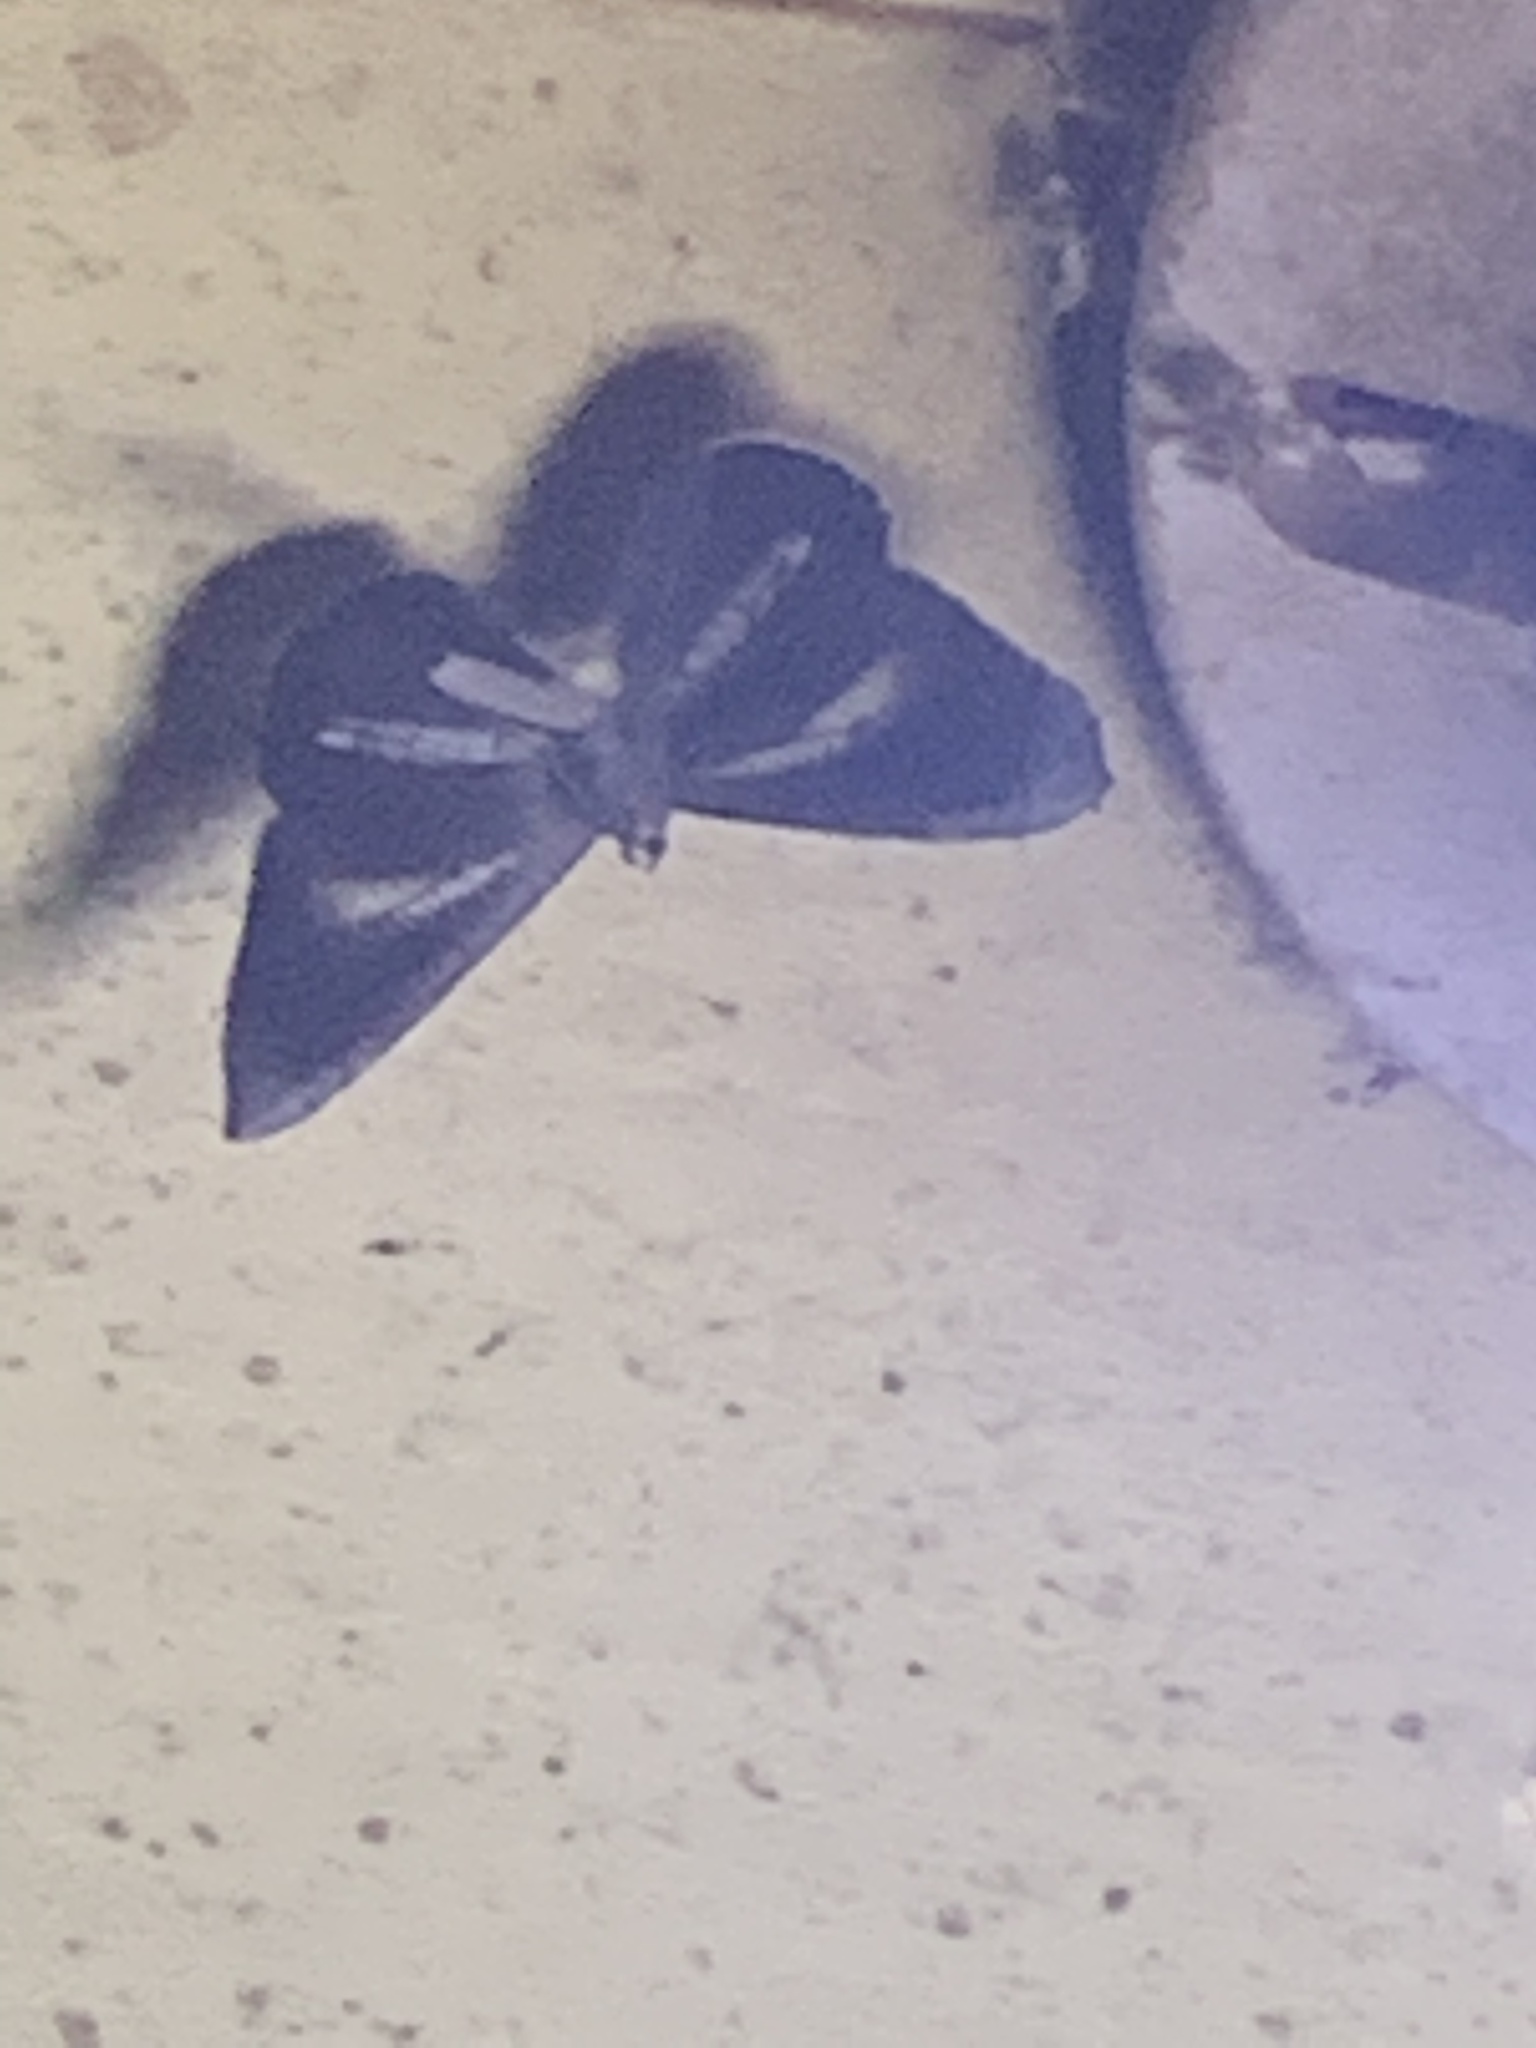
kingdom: Animalia
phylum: Arthropoda
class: Insecta
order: Lepidoptera
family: Hedylidae
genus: Macrosoma
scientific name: Macrosoma lucivittata
